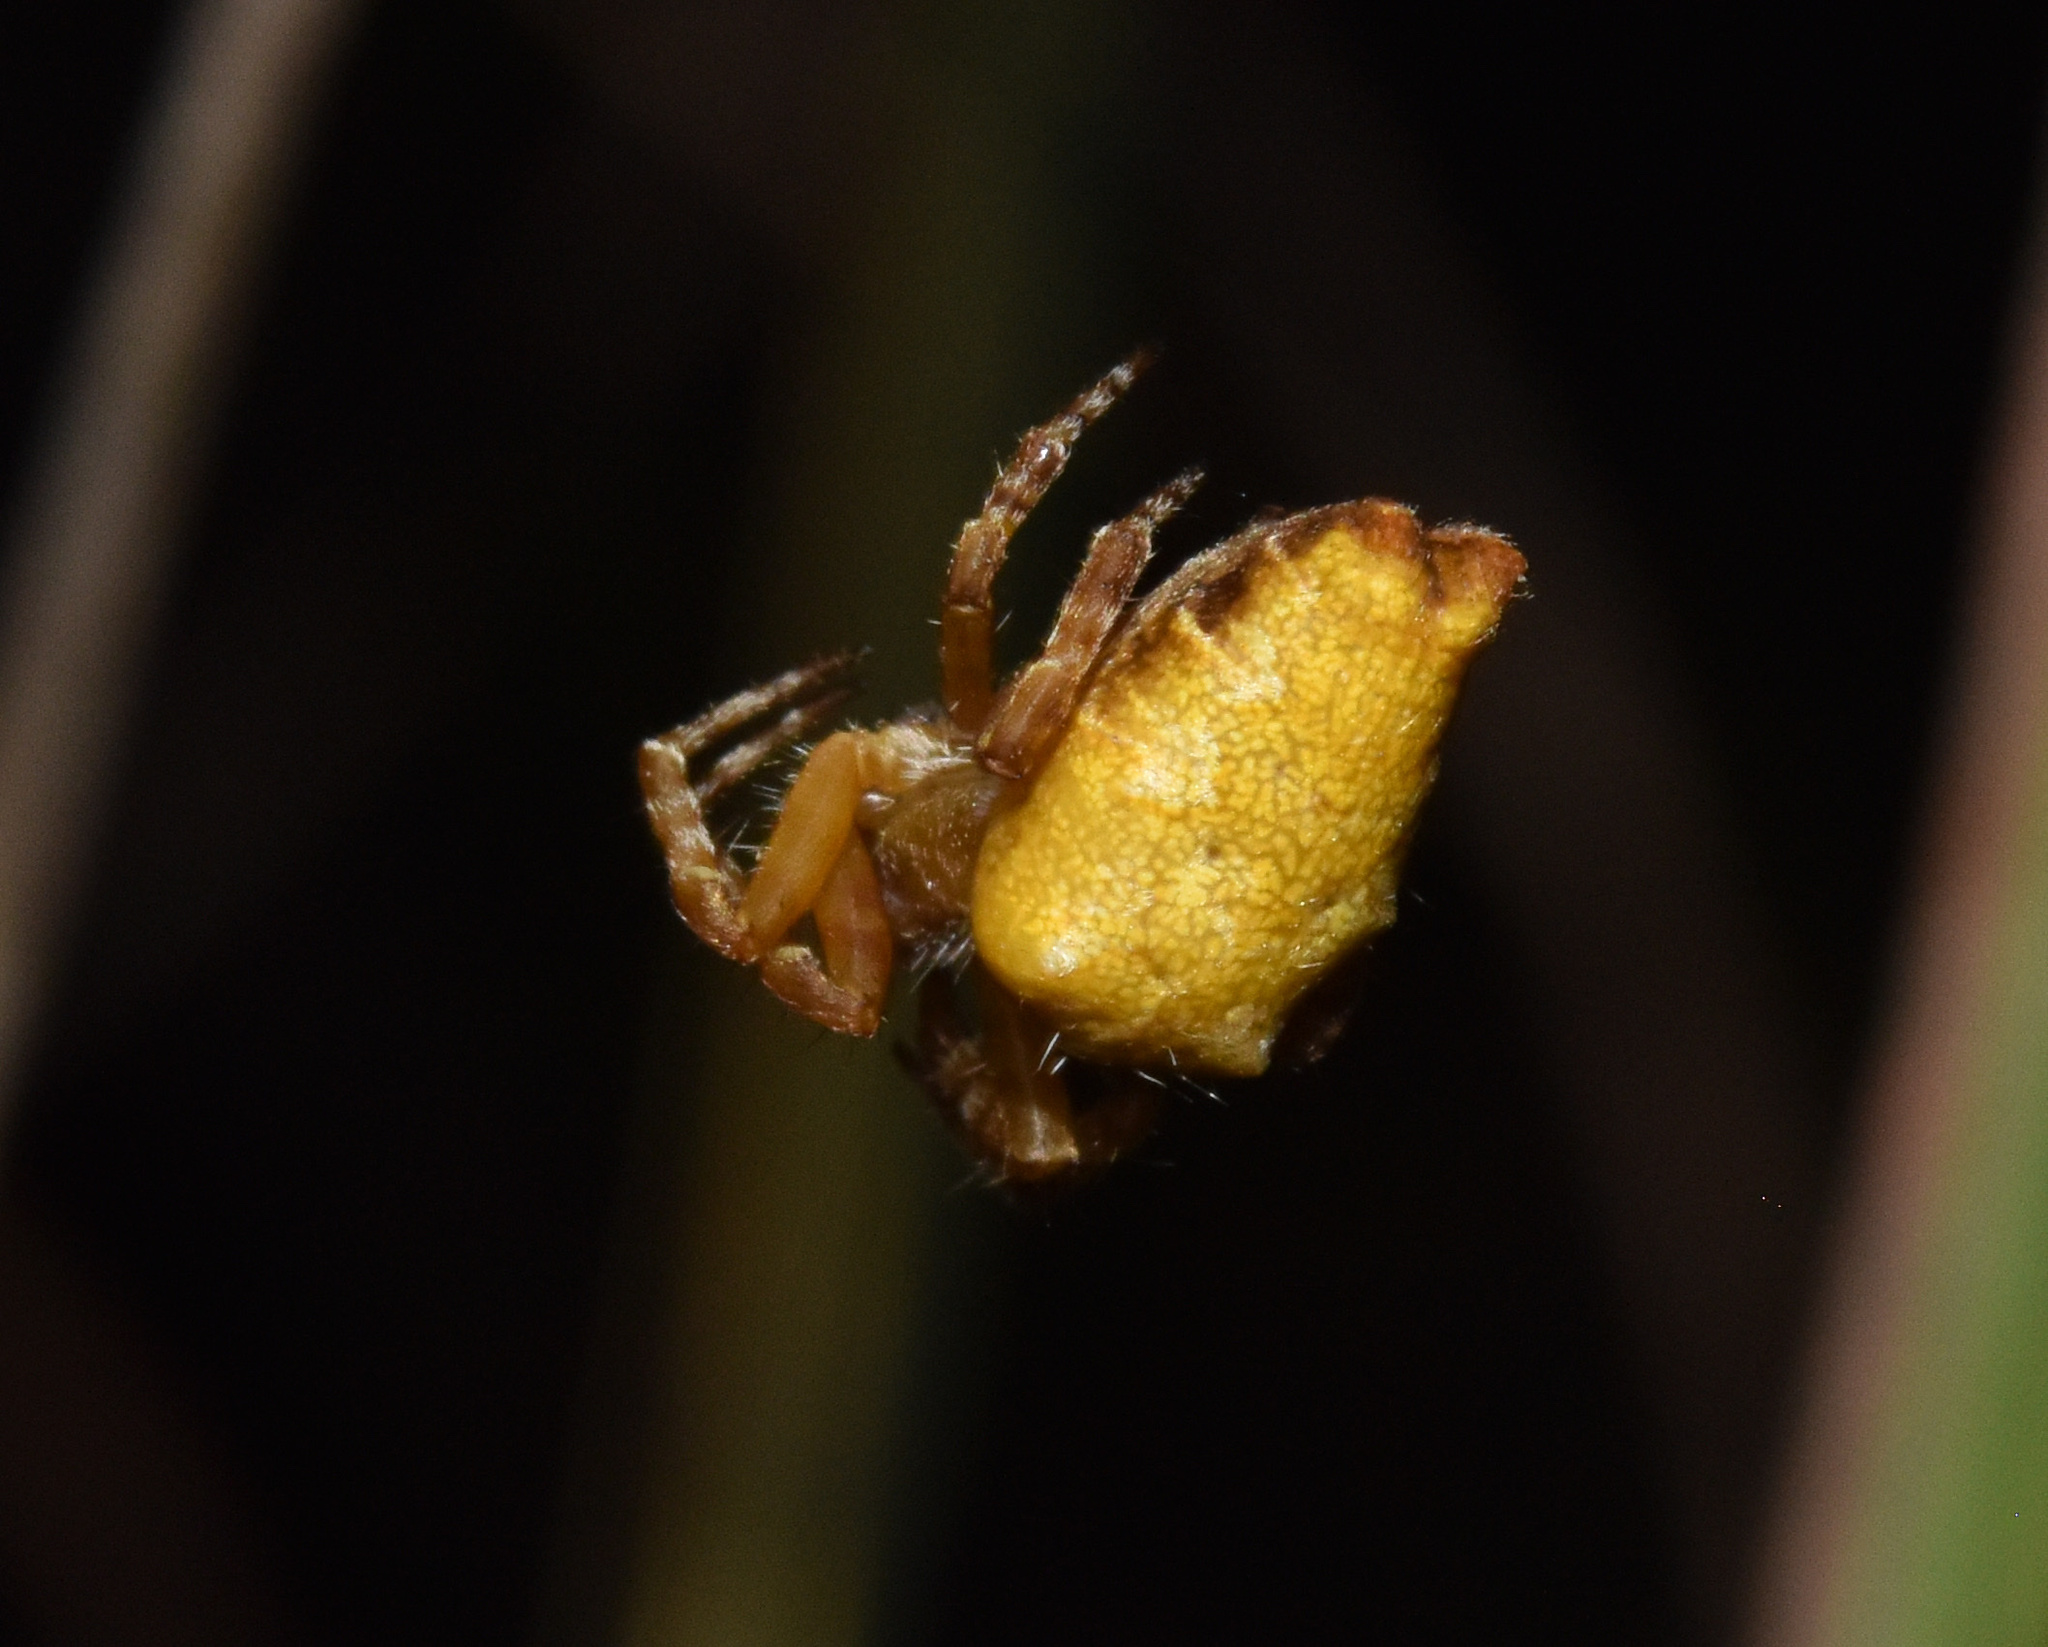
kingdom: Animalia
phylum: Arthropoda
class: Arachnida
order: Araneae
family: Araneidae
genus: Cyrtophora
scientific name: Cyrtophora citricola
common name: Orb weavers
